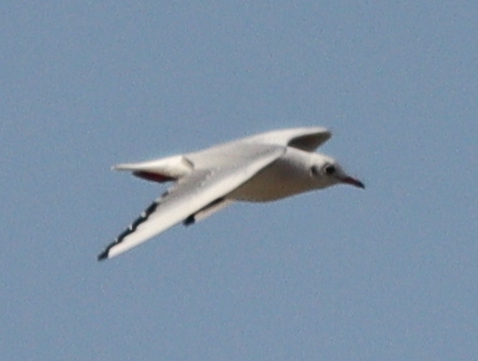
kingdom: Animalia
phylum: Chordata
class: Aves
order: Charadriiformes
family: Laridae
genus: Chroicocephalus
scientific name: Chroicocephalus ridibundus
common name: Black-headed gull
